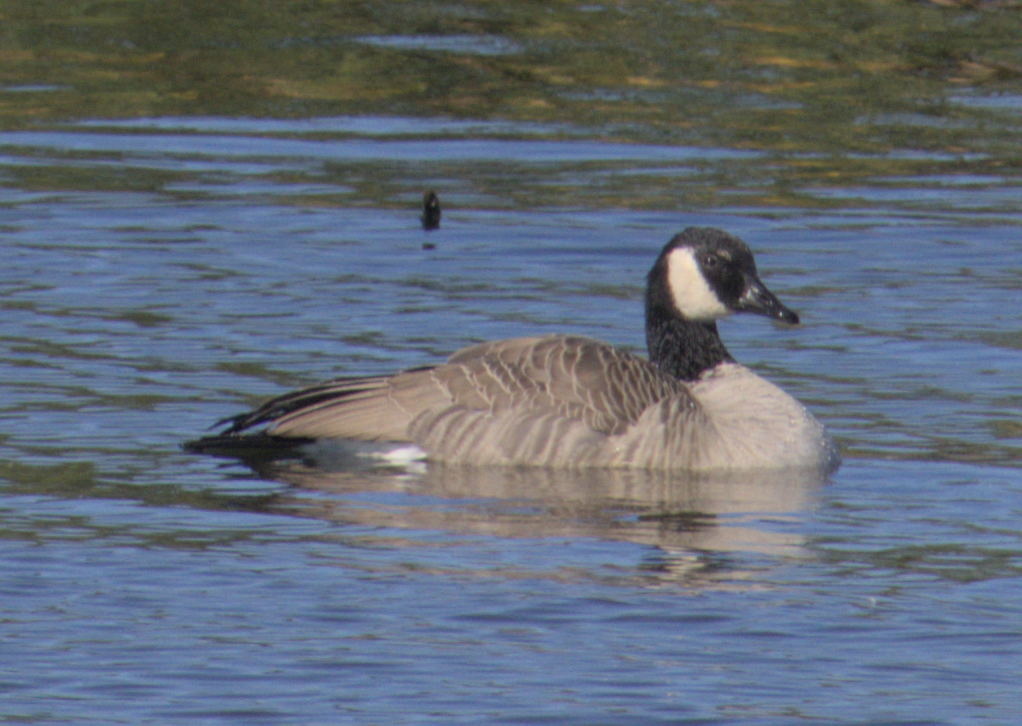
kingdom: Animalia
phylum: Chordata
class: Aves
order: Anseriformes
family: Anatidae
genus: Branta
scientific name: Branta canadensis
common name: Canada goose
